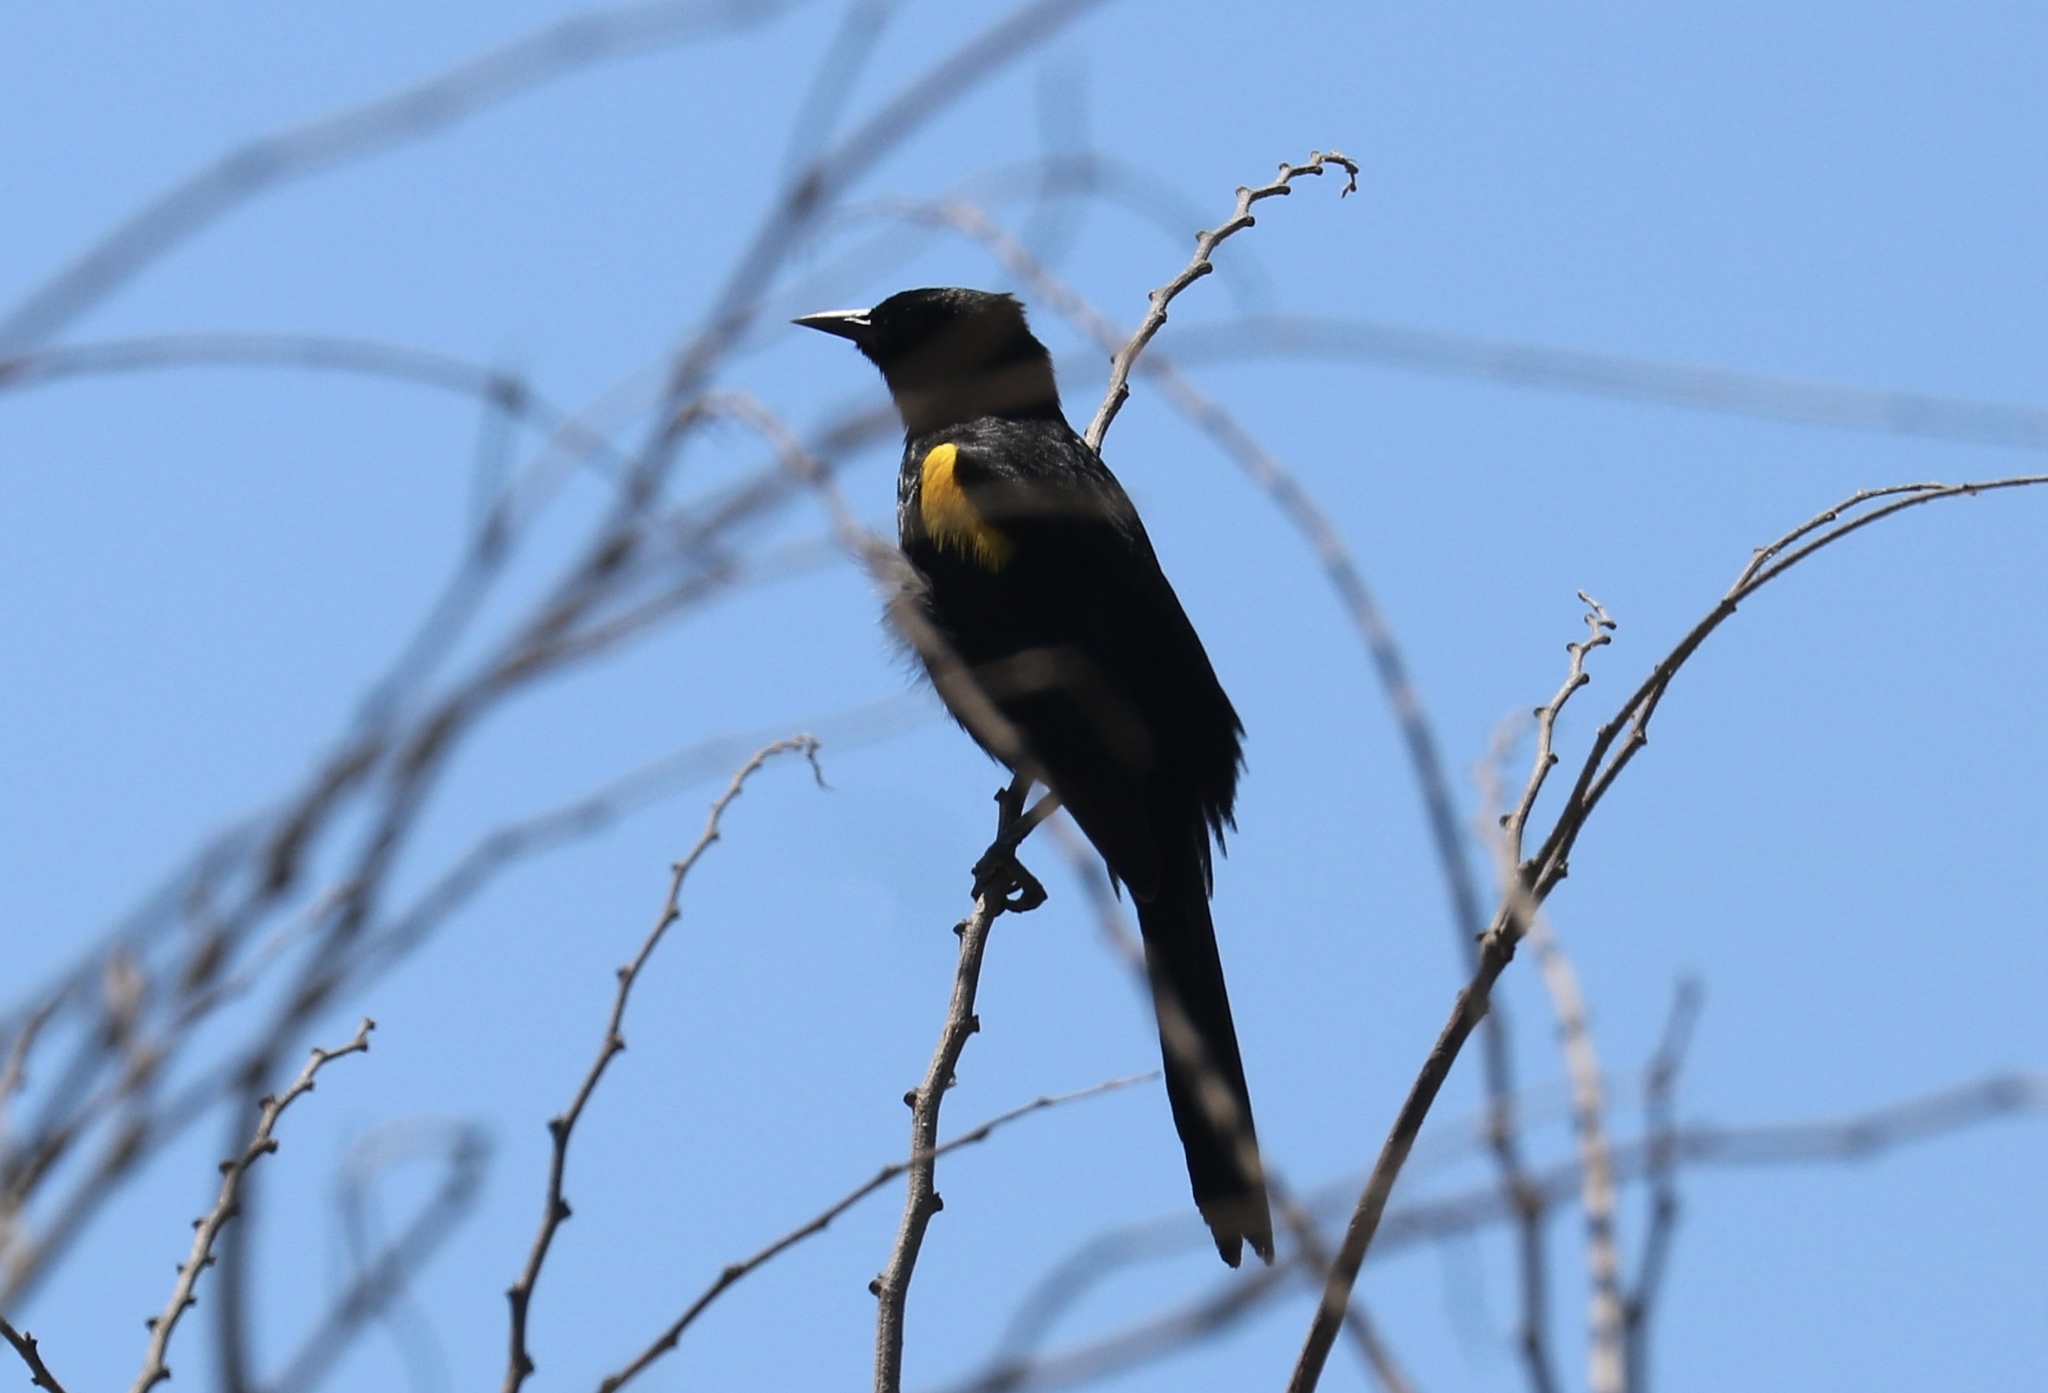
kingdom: Animalia
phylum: Chordata
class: Aves
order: Passeriformes
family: Icteridae
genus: Icterus
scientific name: Icterus cayanensis
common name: Epaulet oriole
